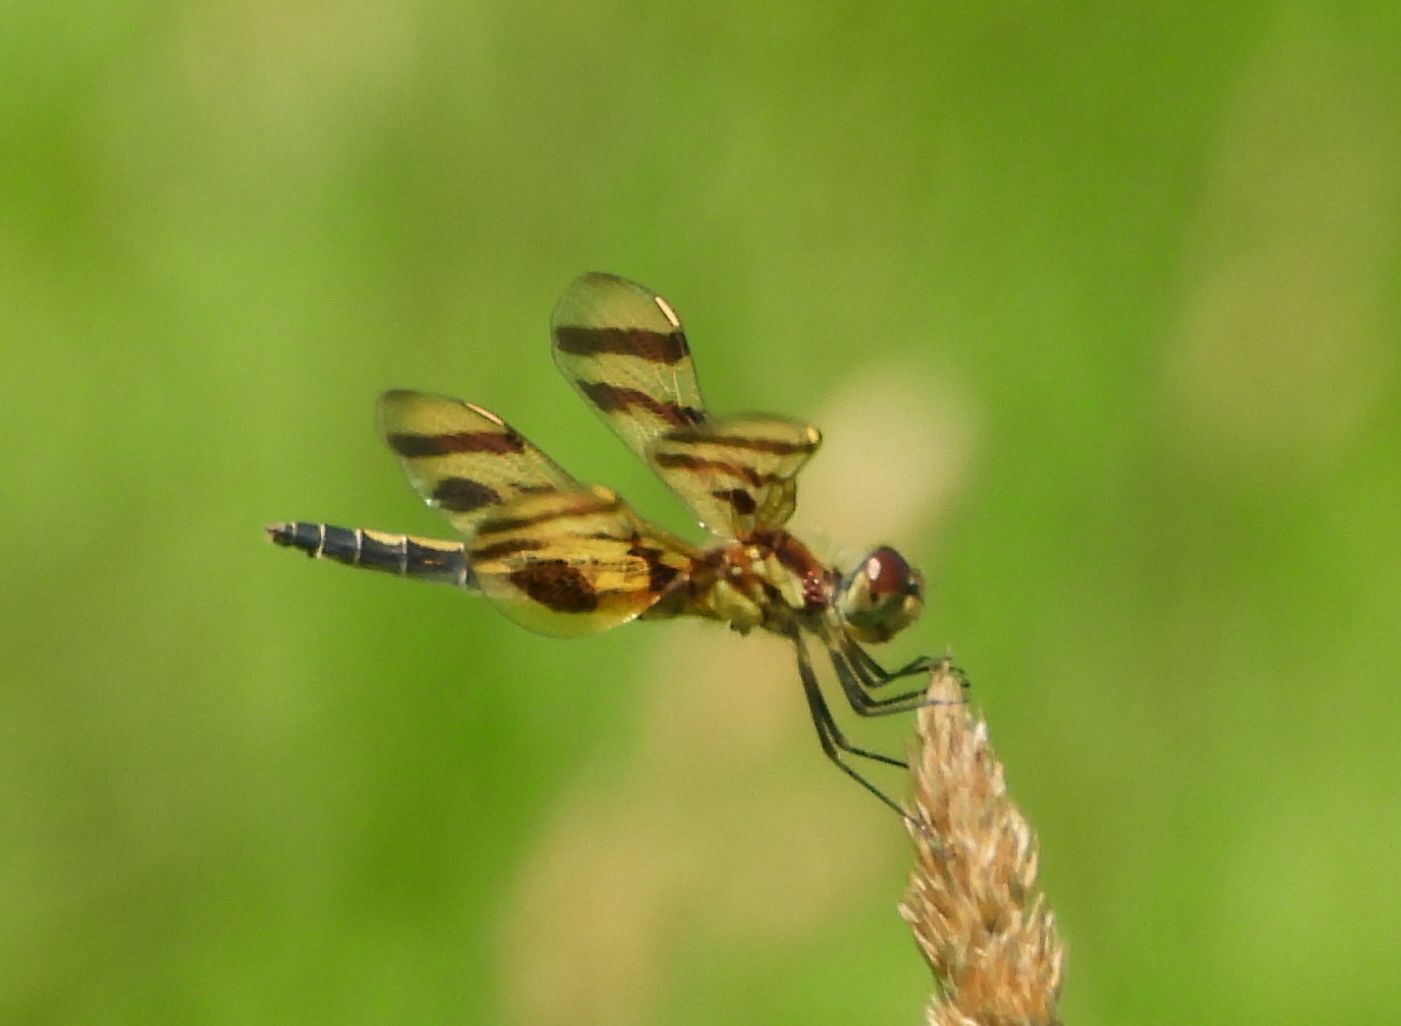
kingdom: Animalia
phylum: Arthropoda
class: Insecta
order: Odonata
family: Libellulidae
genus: Celithemis
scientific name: Celithemis eponina
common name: Halloween pennant
